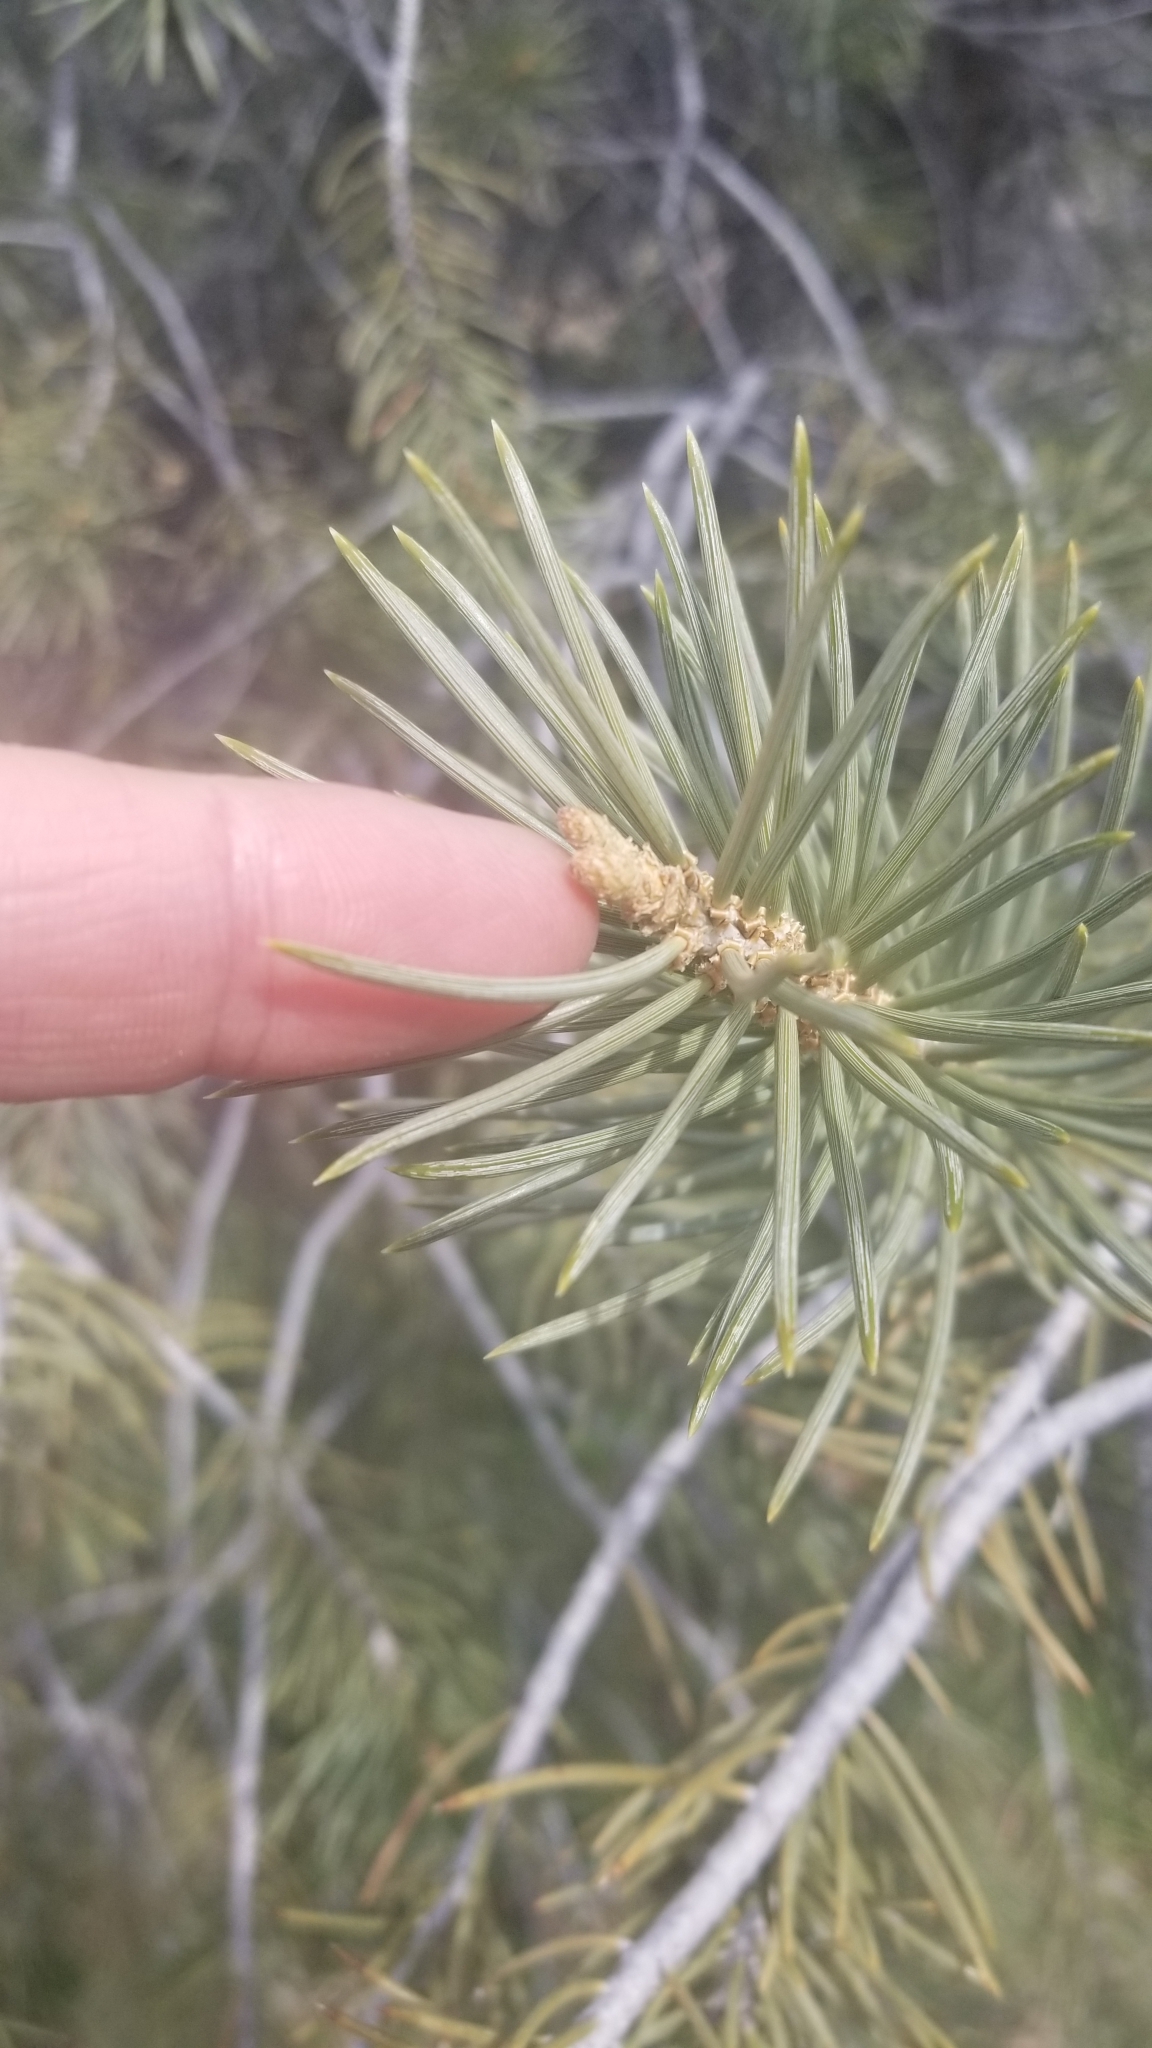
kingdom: Plantae
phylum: Tracheophyta
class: Pinopsida
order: Pinales
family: Pinaceae
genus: Pinus
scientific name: Pinus monophylla
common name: One-leaved nut pine
